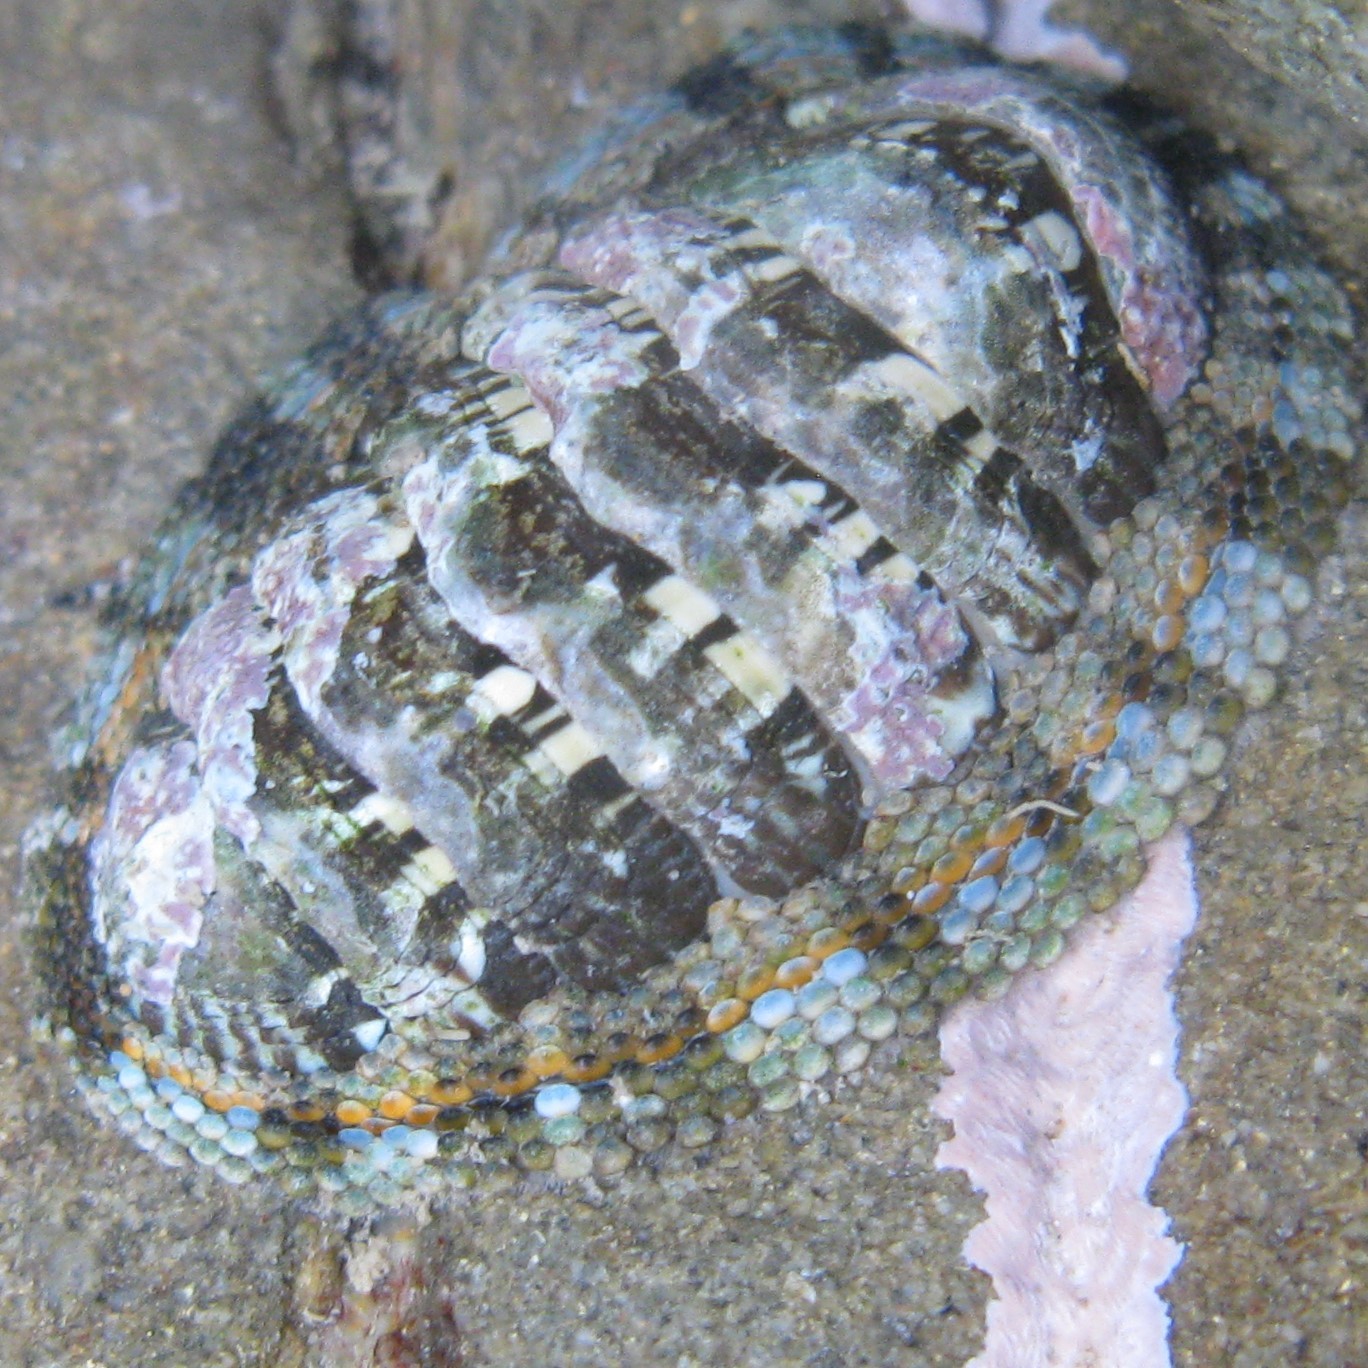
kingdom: Animalia
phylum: Mollusca
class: Polyplacophora
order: Chitonida
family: Chitonidae
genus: Sypharochiton
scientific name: Sypharochiton sinclairi
